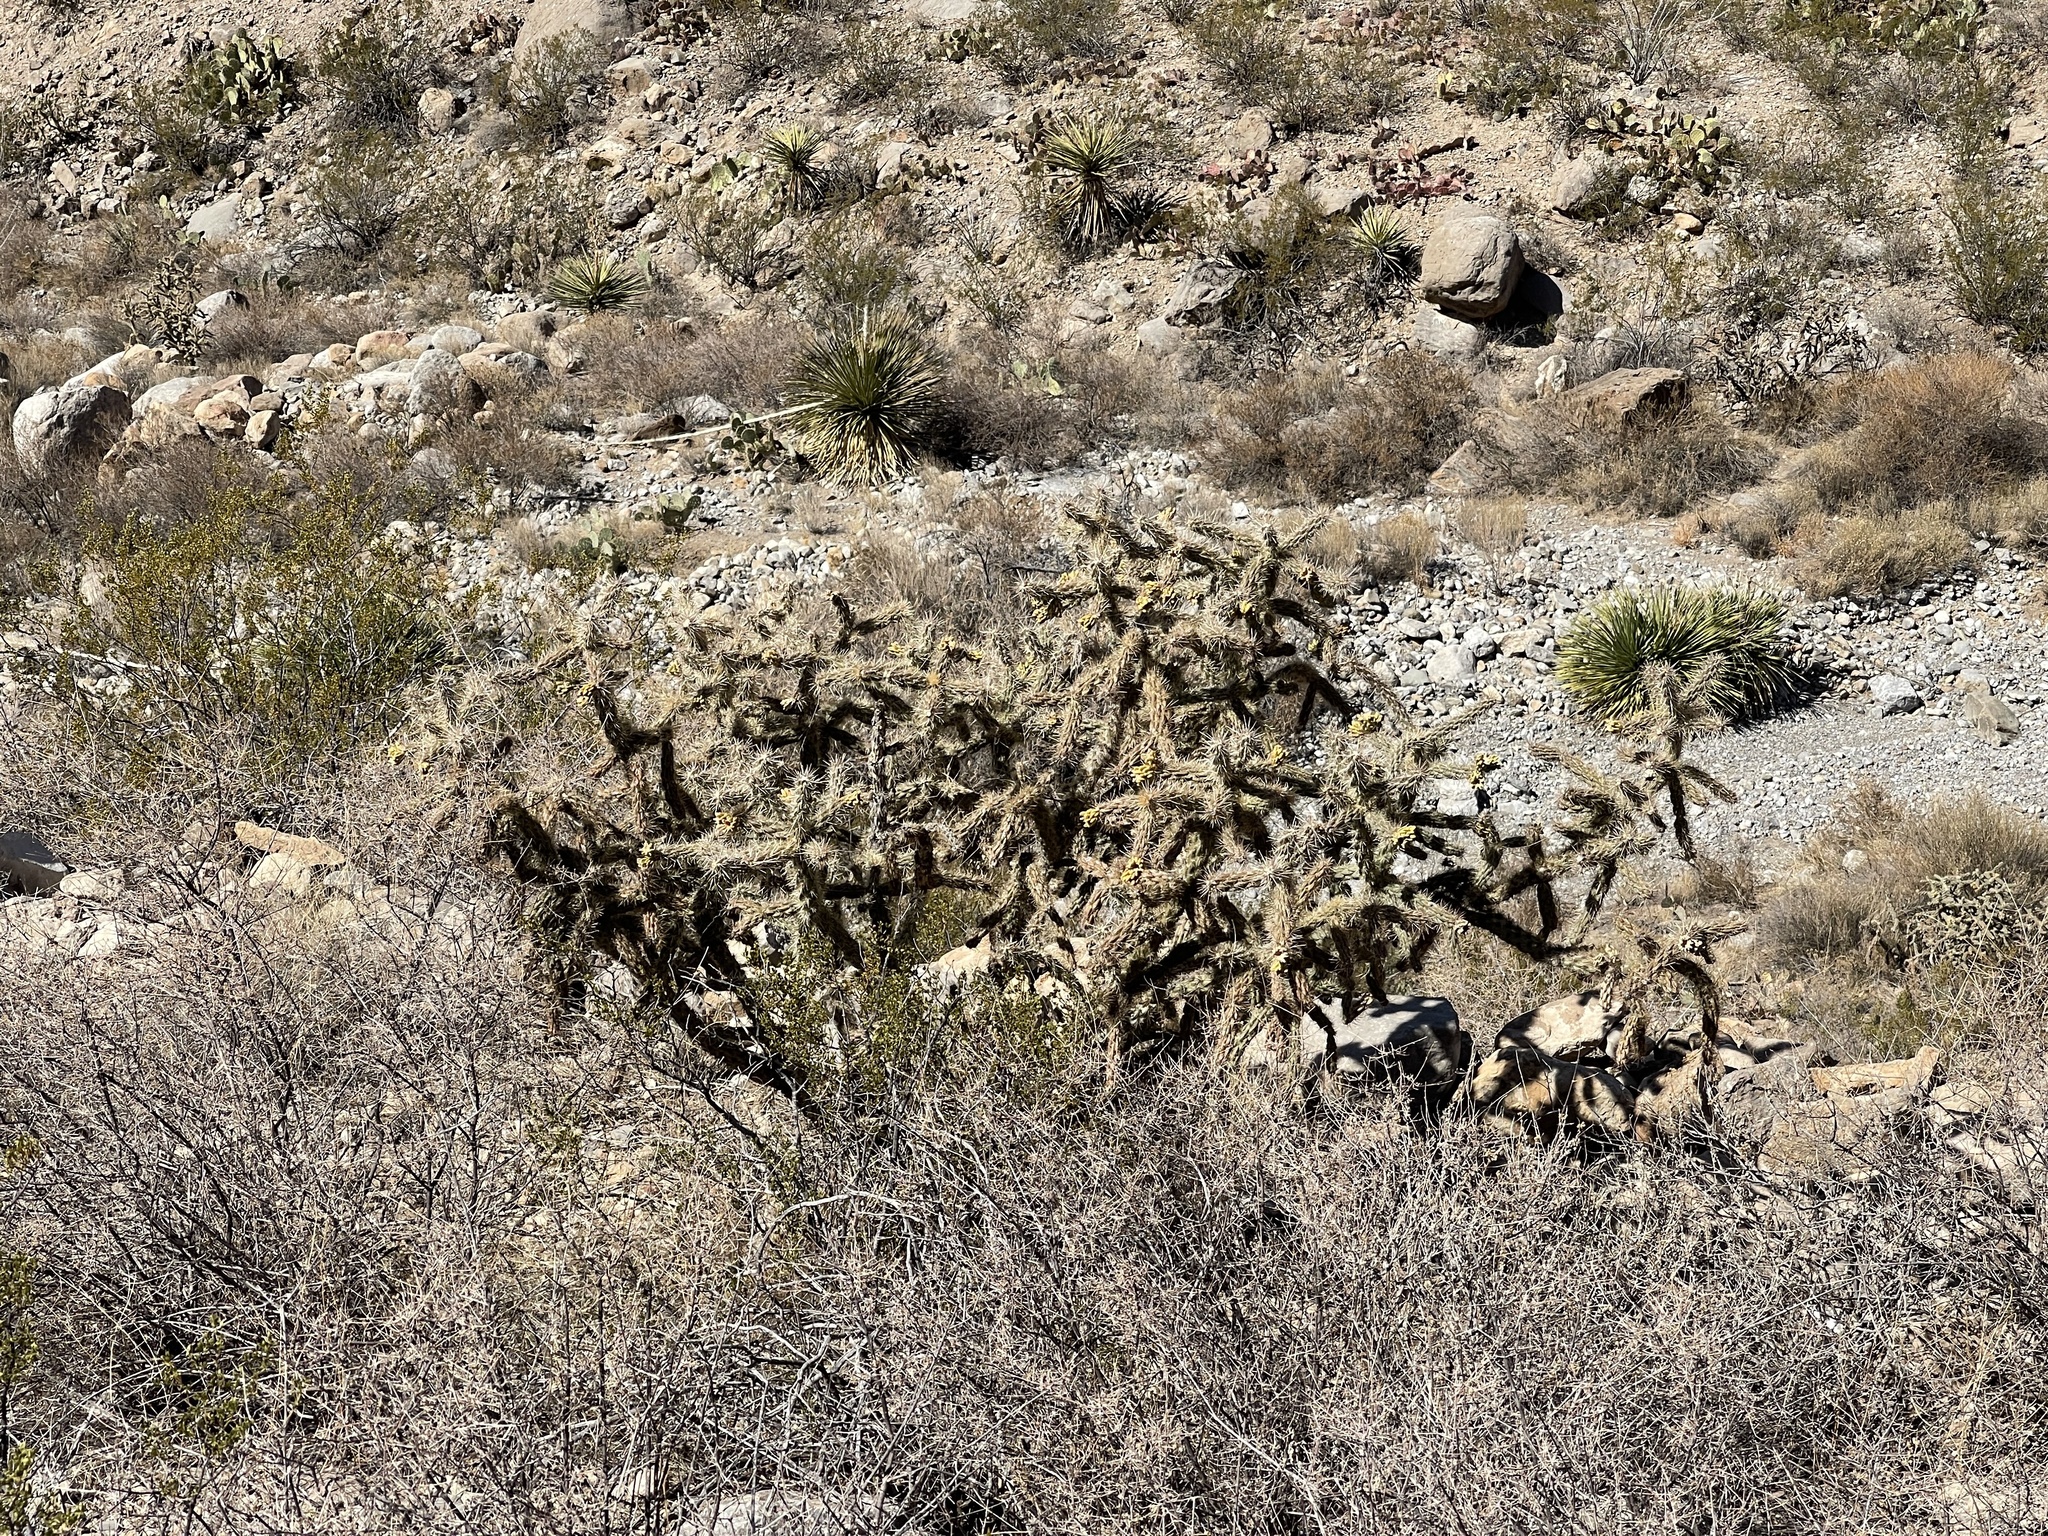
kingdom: Plantae
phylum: Tracheophyta
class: Magnoliopsida
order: Caryophyllales
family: Cactaceae
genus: Cylindropuntia
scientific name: Cylindropuntia imbricata
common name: Candelabrum cactus
